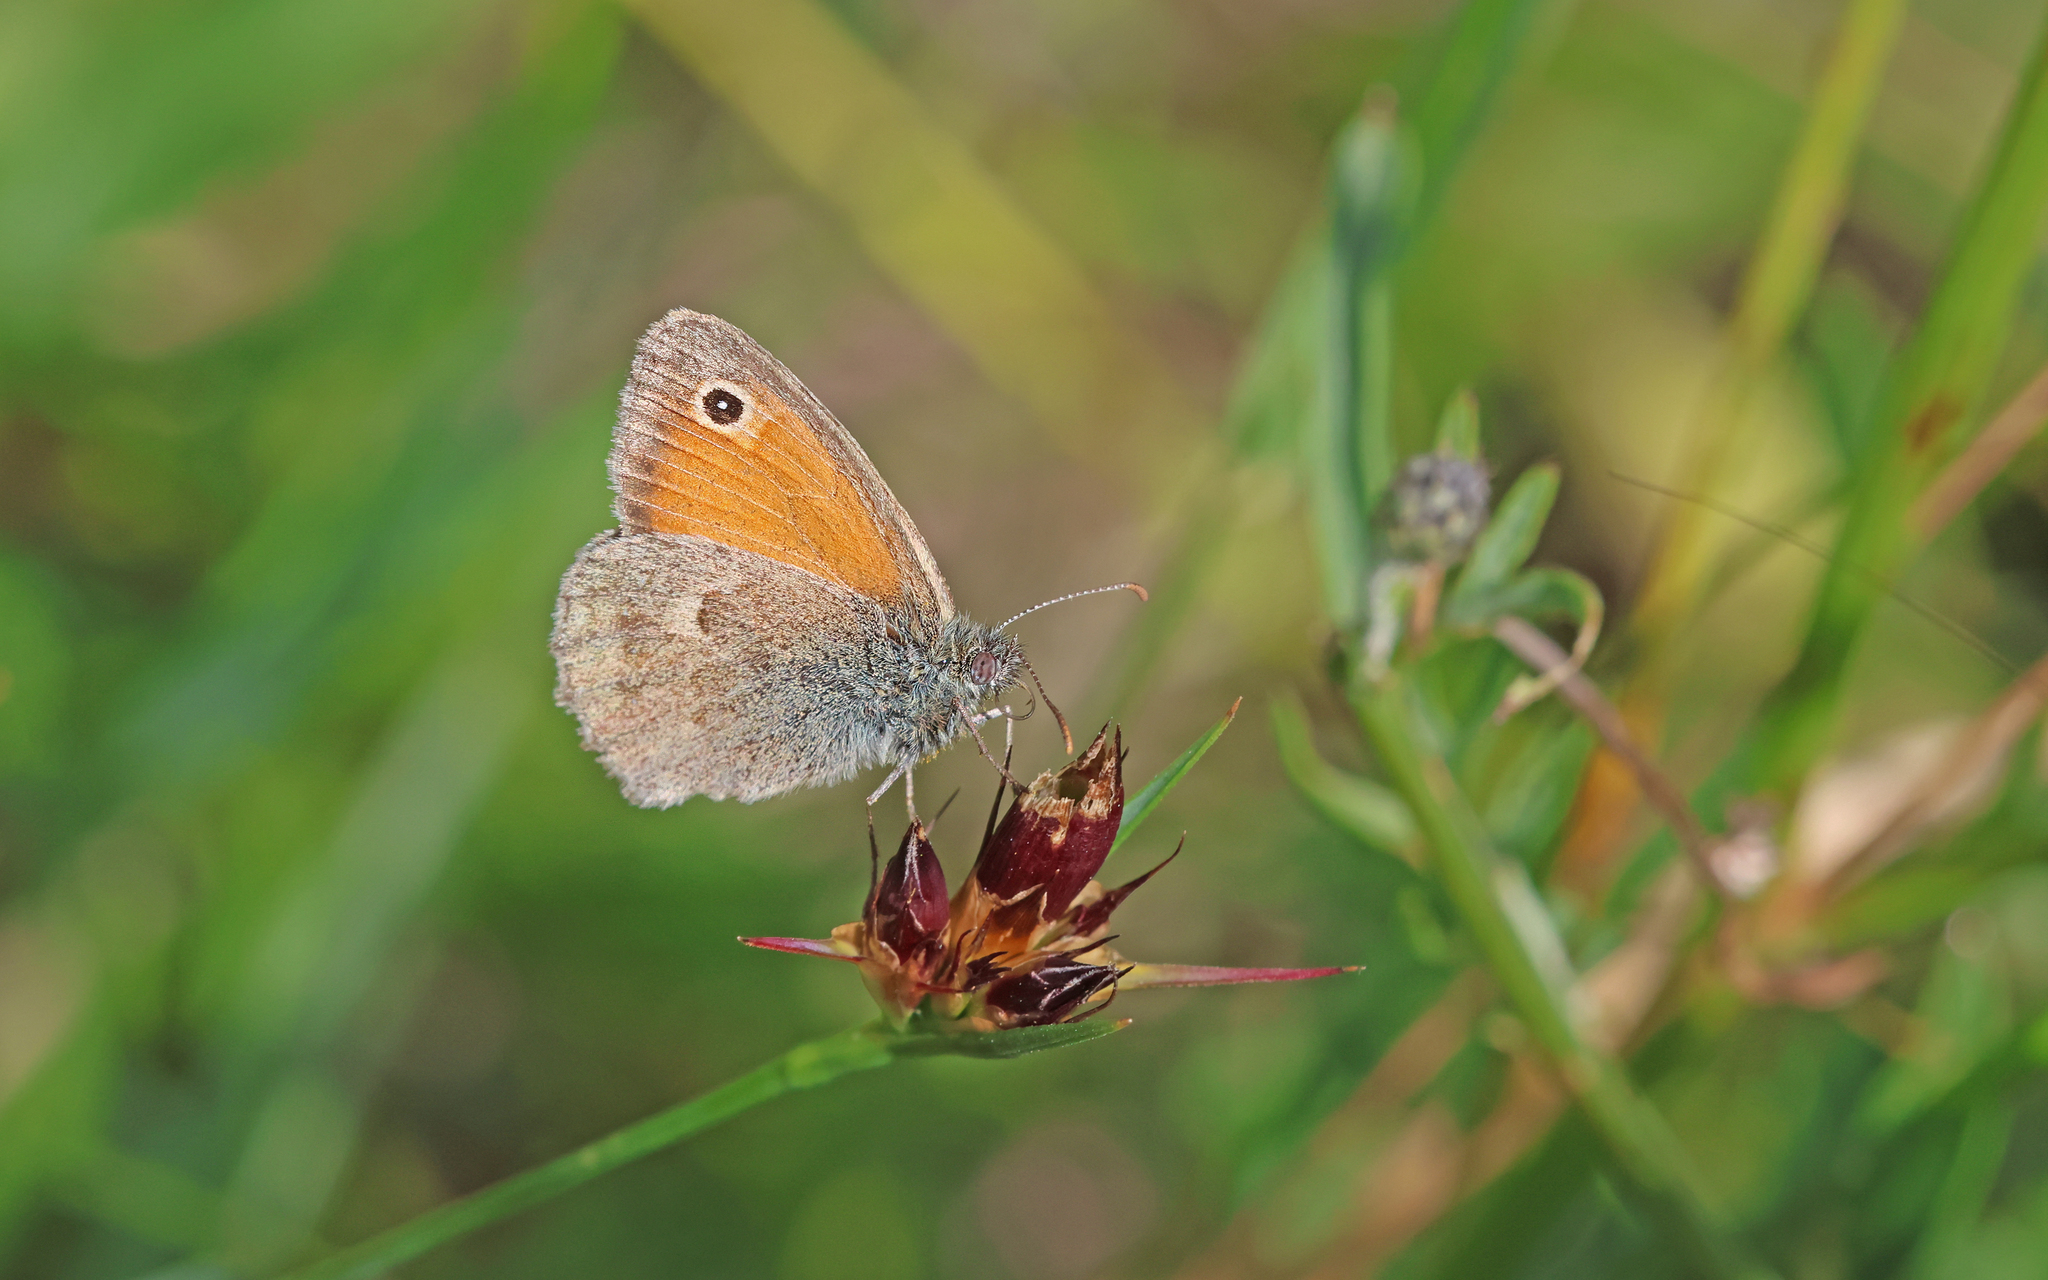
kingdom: Animalia
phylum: Arthropoda
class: Insecta
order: Lepidoptera
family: Nymphalidae
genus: Coenonympha
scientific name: Coenonympha pamphilus
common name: Small heath
